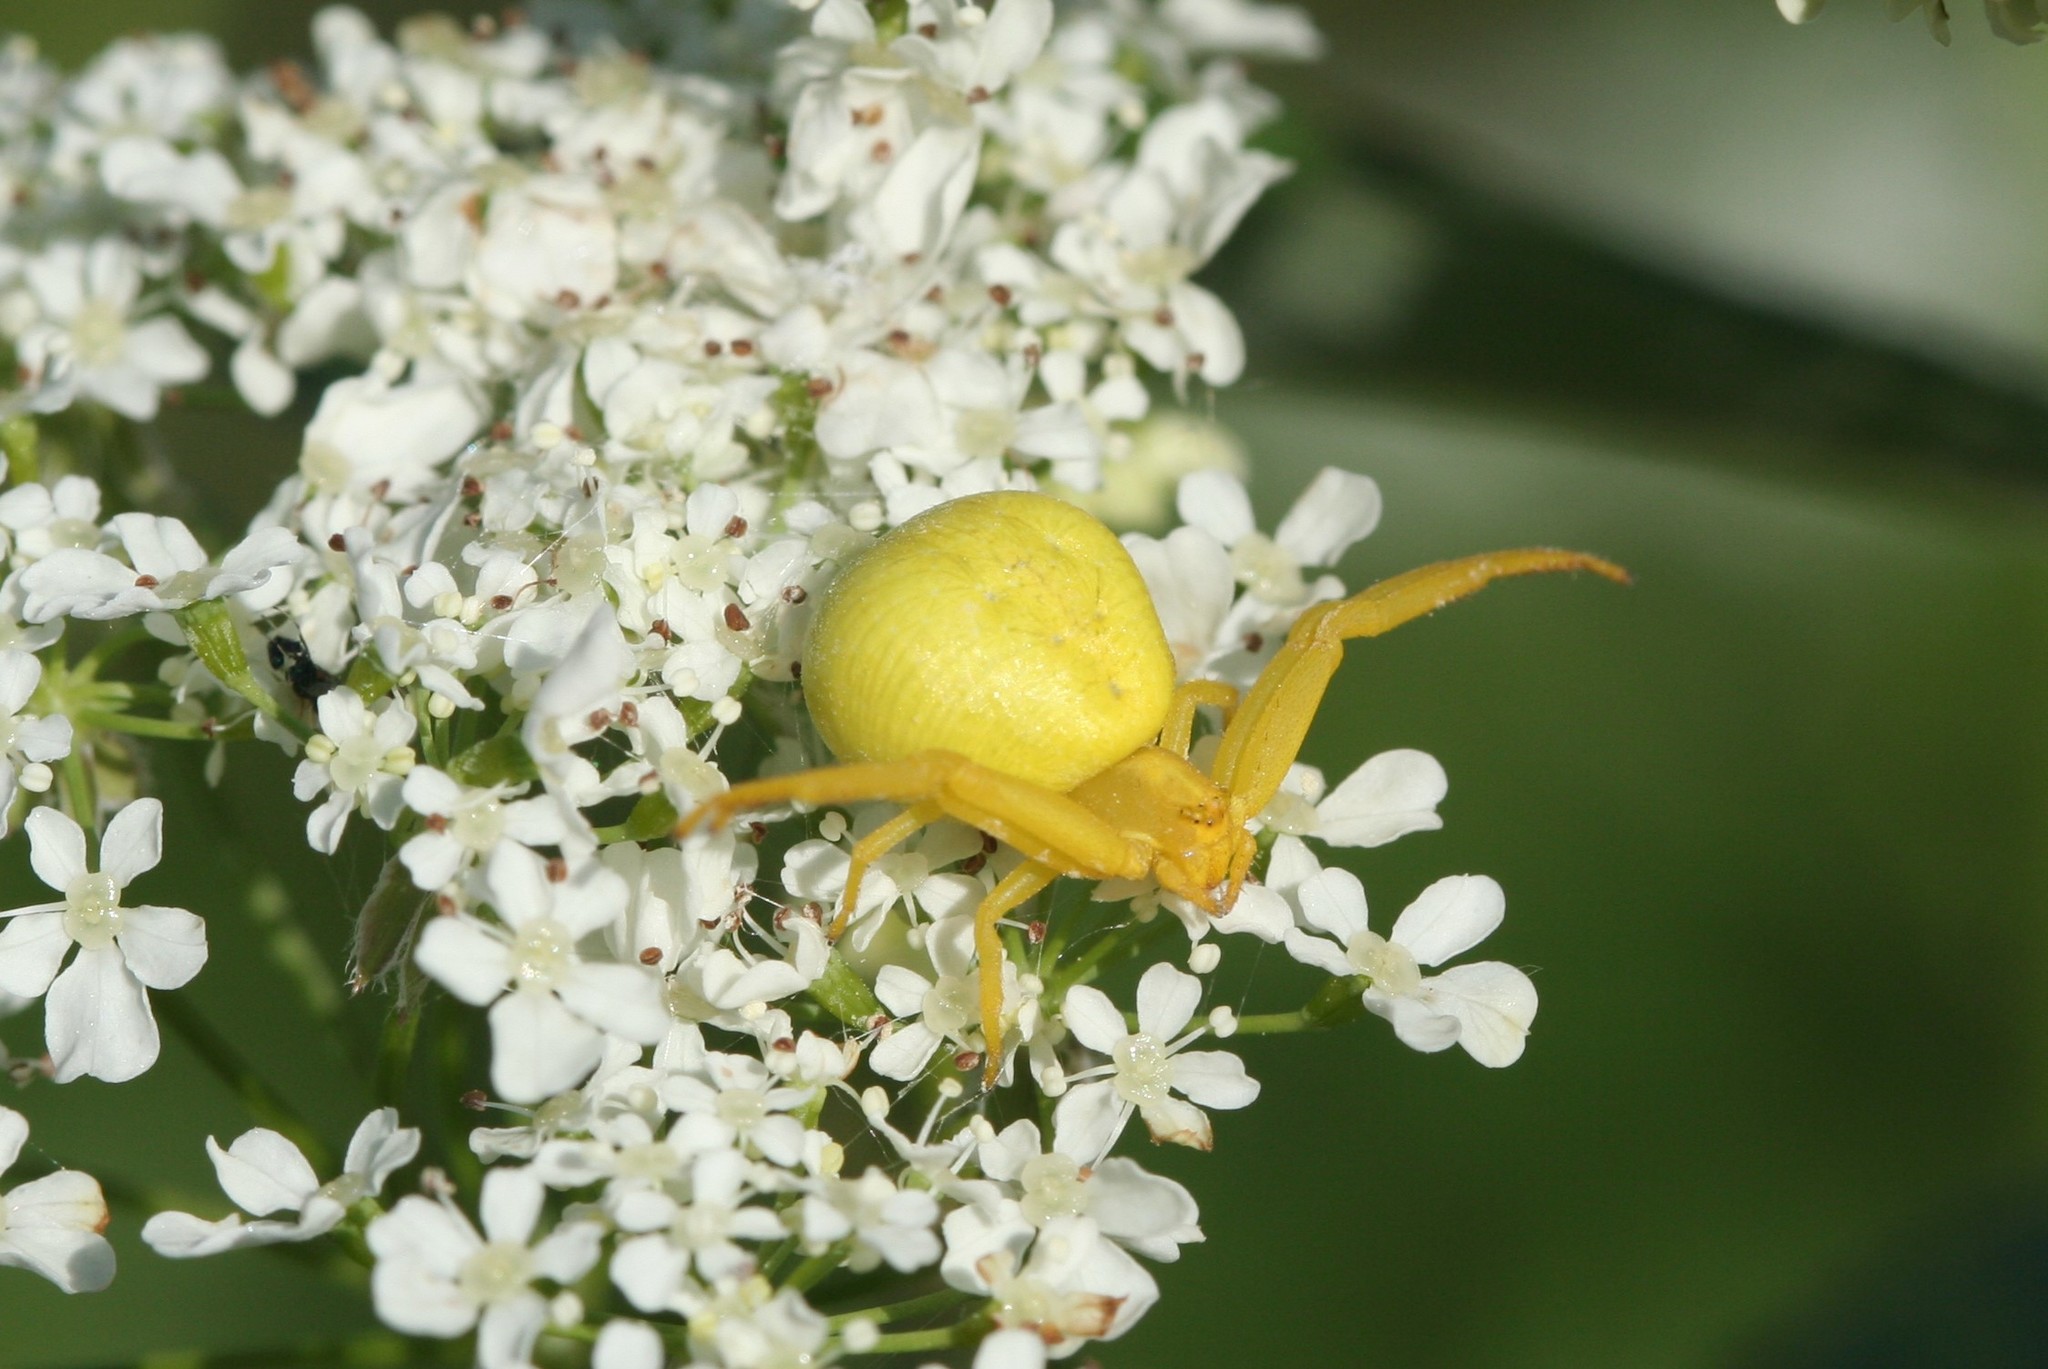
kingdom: Animalia
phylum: Arthropoda
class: Arachnida
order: Araneae
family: Thomisidae
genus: Misumena
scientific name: Misumena vatia
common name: Goldenrod crab spider
